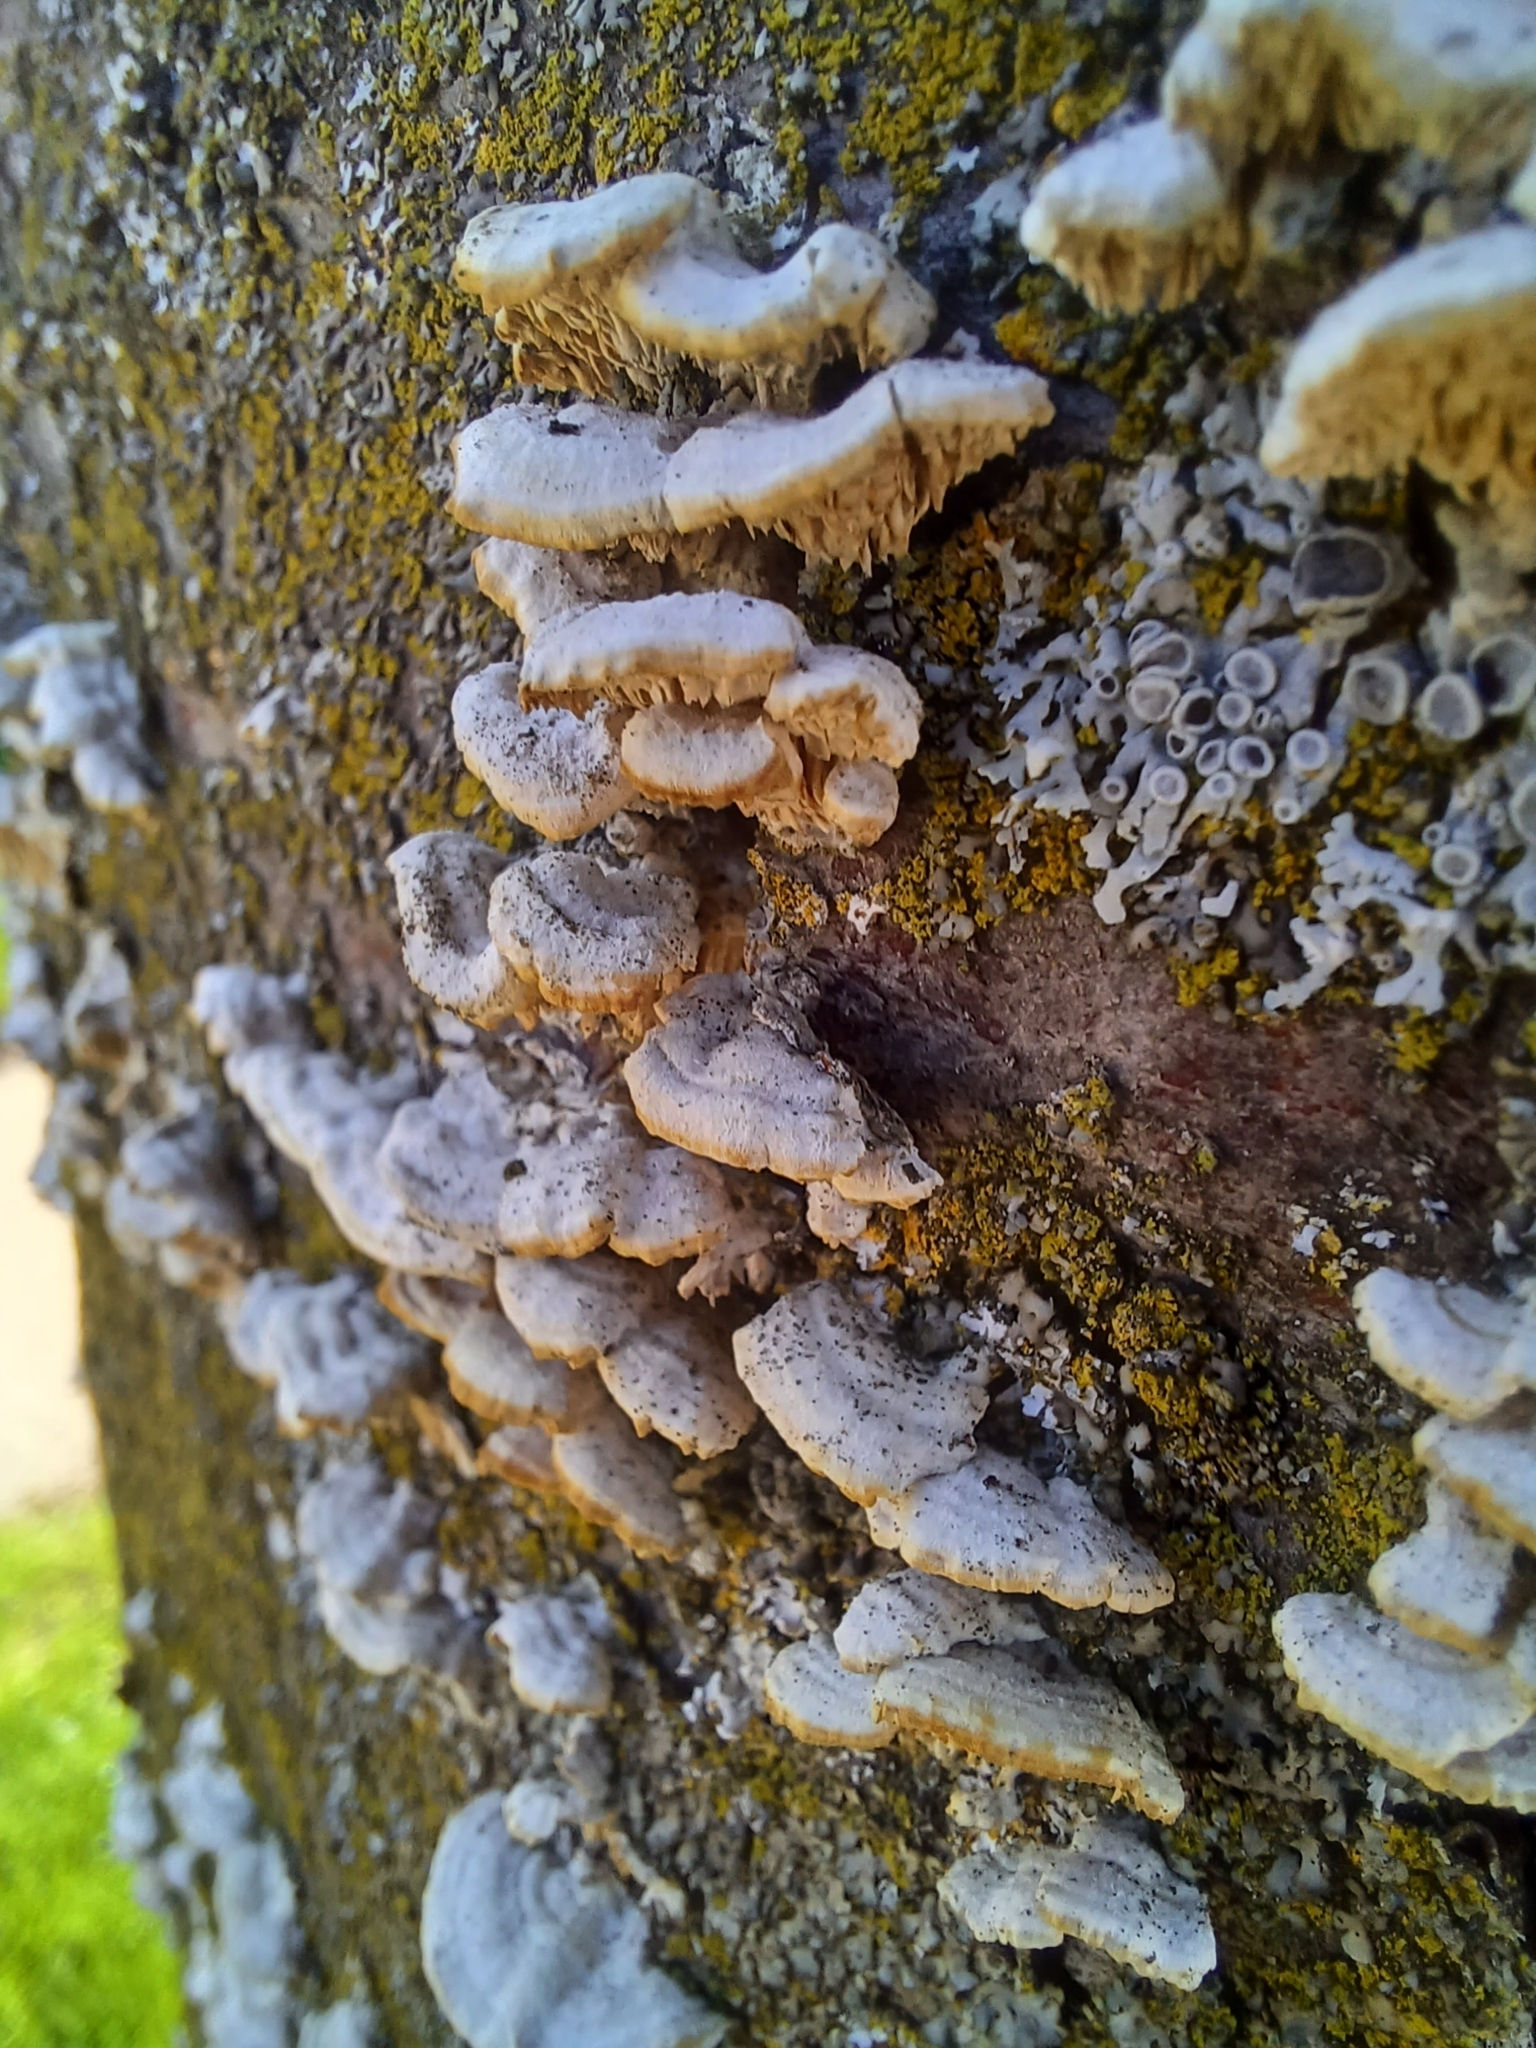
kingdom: Fungi
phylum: Basidiomycota
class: Agaricomycetes
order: Polyporales
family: Irpicaceae
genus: Irpex
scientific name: Irpex lacteus
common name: Milk-white toothed polypore
